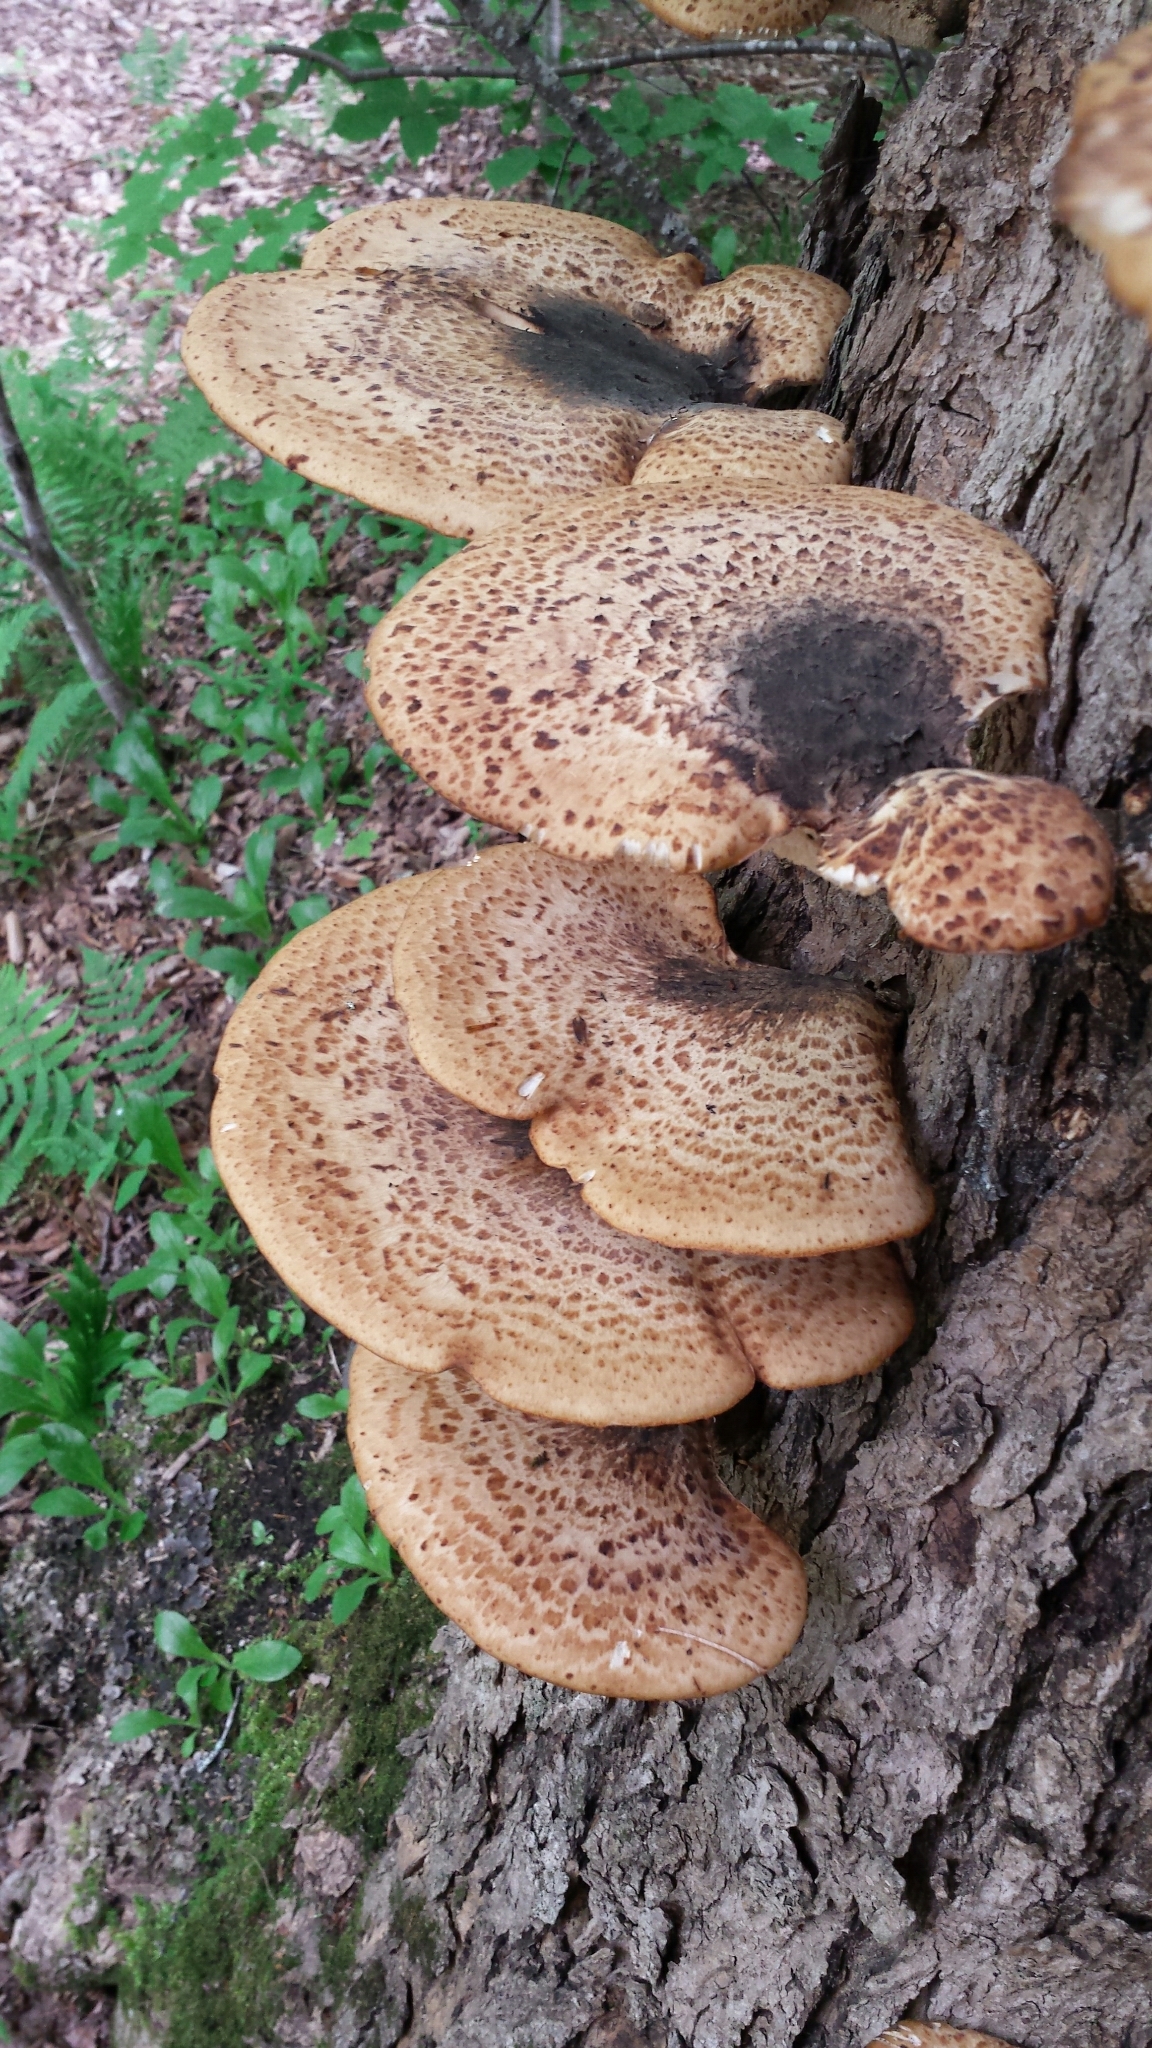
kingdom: Fungi
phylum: Basidiomycota
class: Agaricomycetes
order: Polyporales
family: Polyporaceae
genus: Cerioporus
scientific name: Cerioporus squamosus
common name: Dryad's saddle
